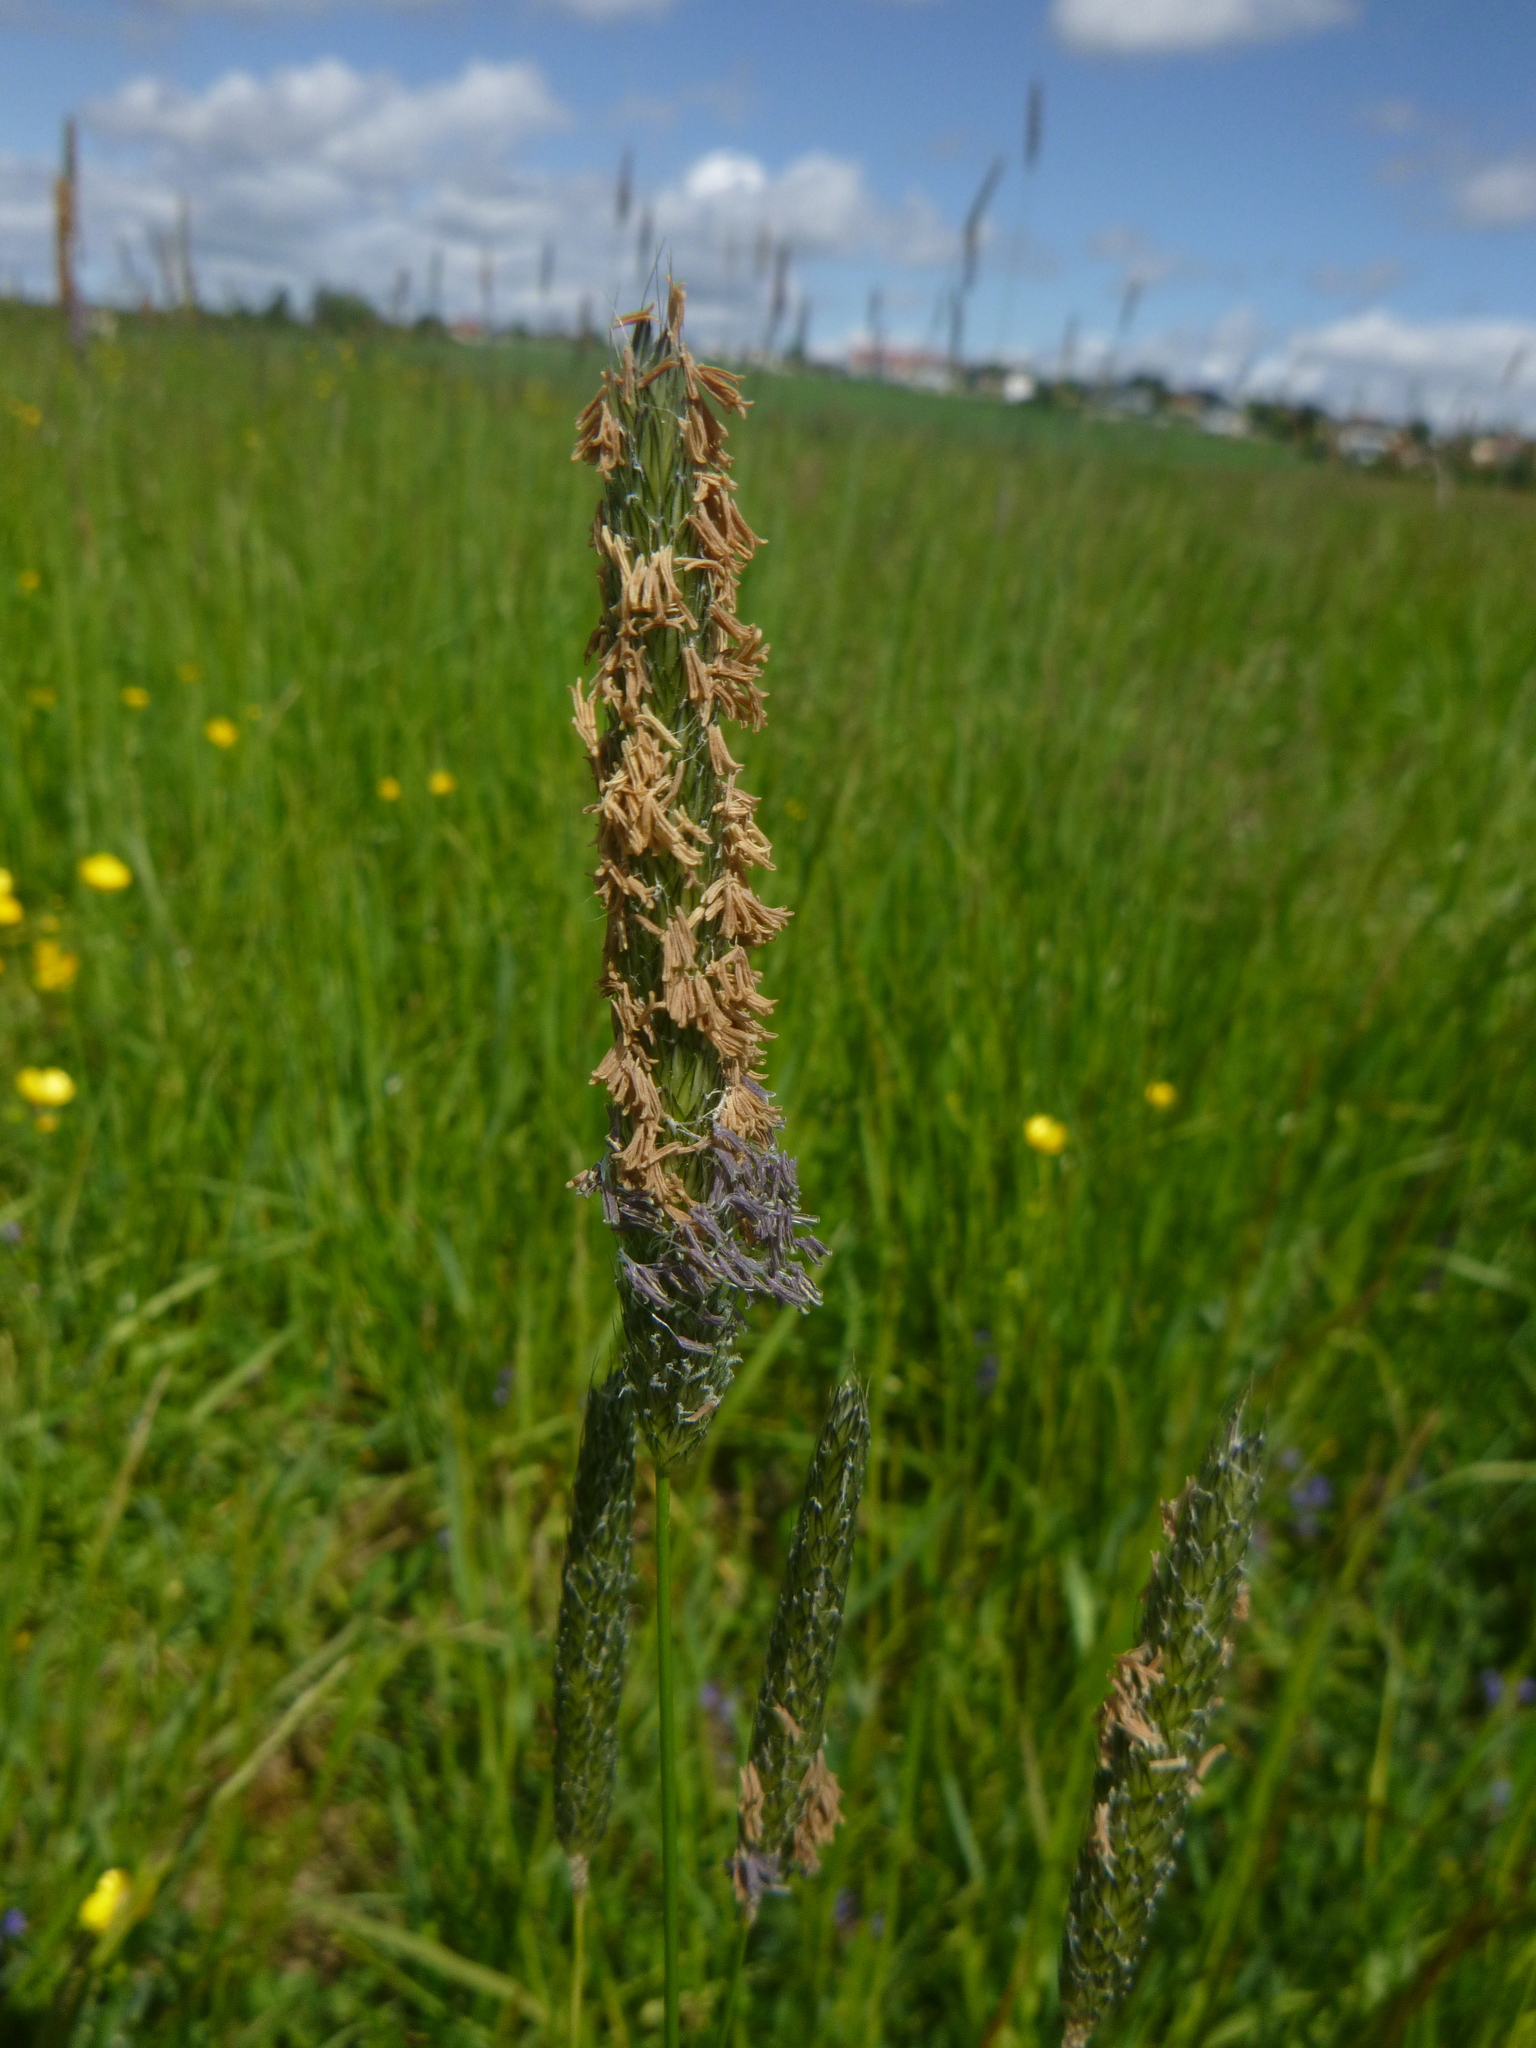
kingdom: Plantae
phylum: Tracheophyta
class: Liliopsida
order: Poales
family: Poaceae
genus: Alopecurus
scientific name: Alopecurus pratensis
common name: Meadow foxtail
